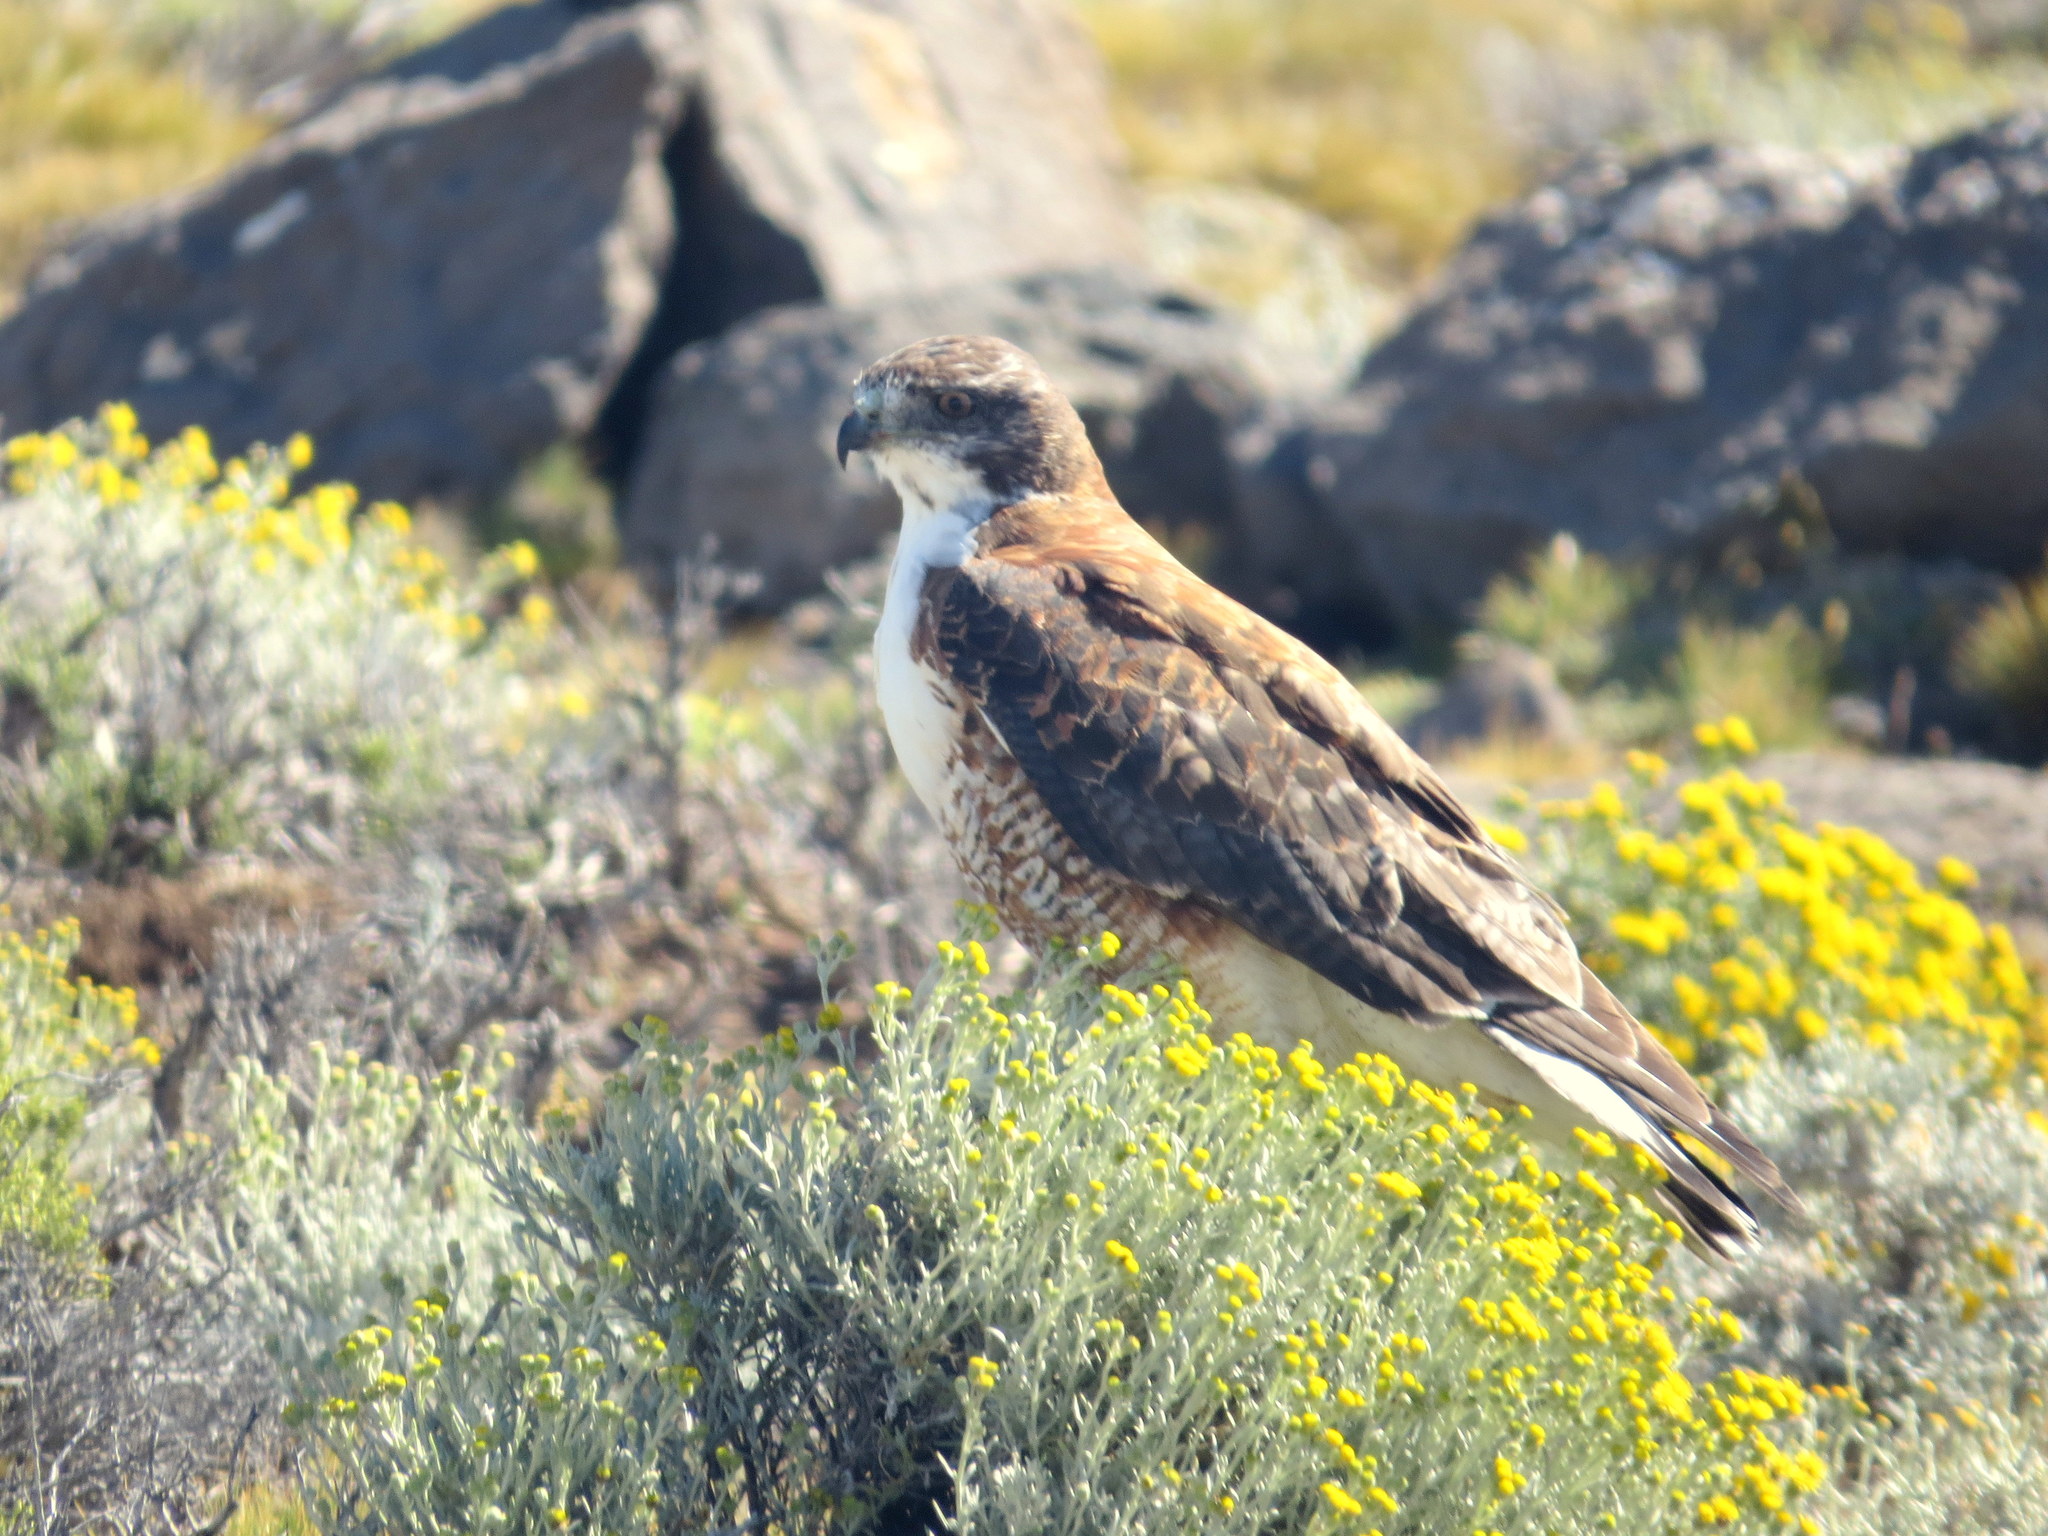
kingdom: Animalia
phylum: Chordata
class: Aves
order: Accipitriformes
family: Accipitridae
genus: Buteo
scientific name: Buteo polyosoma
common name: Variable hawk
